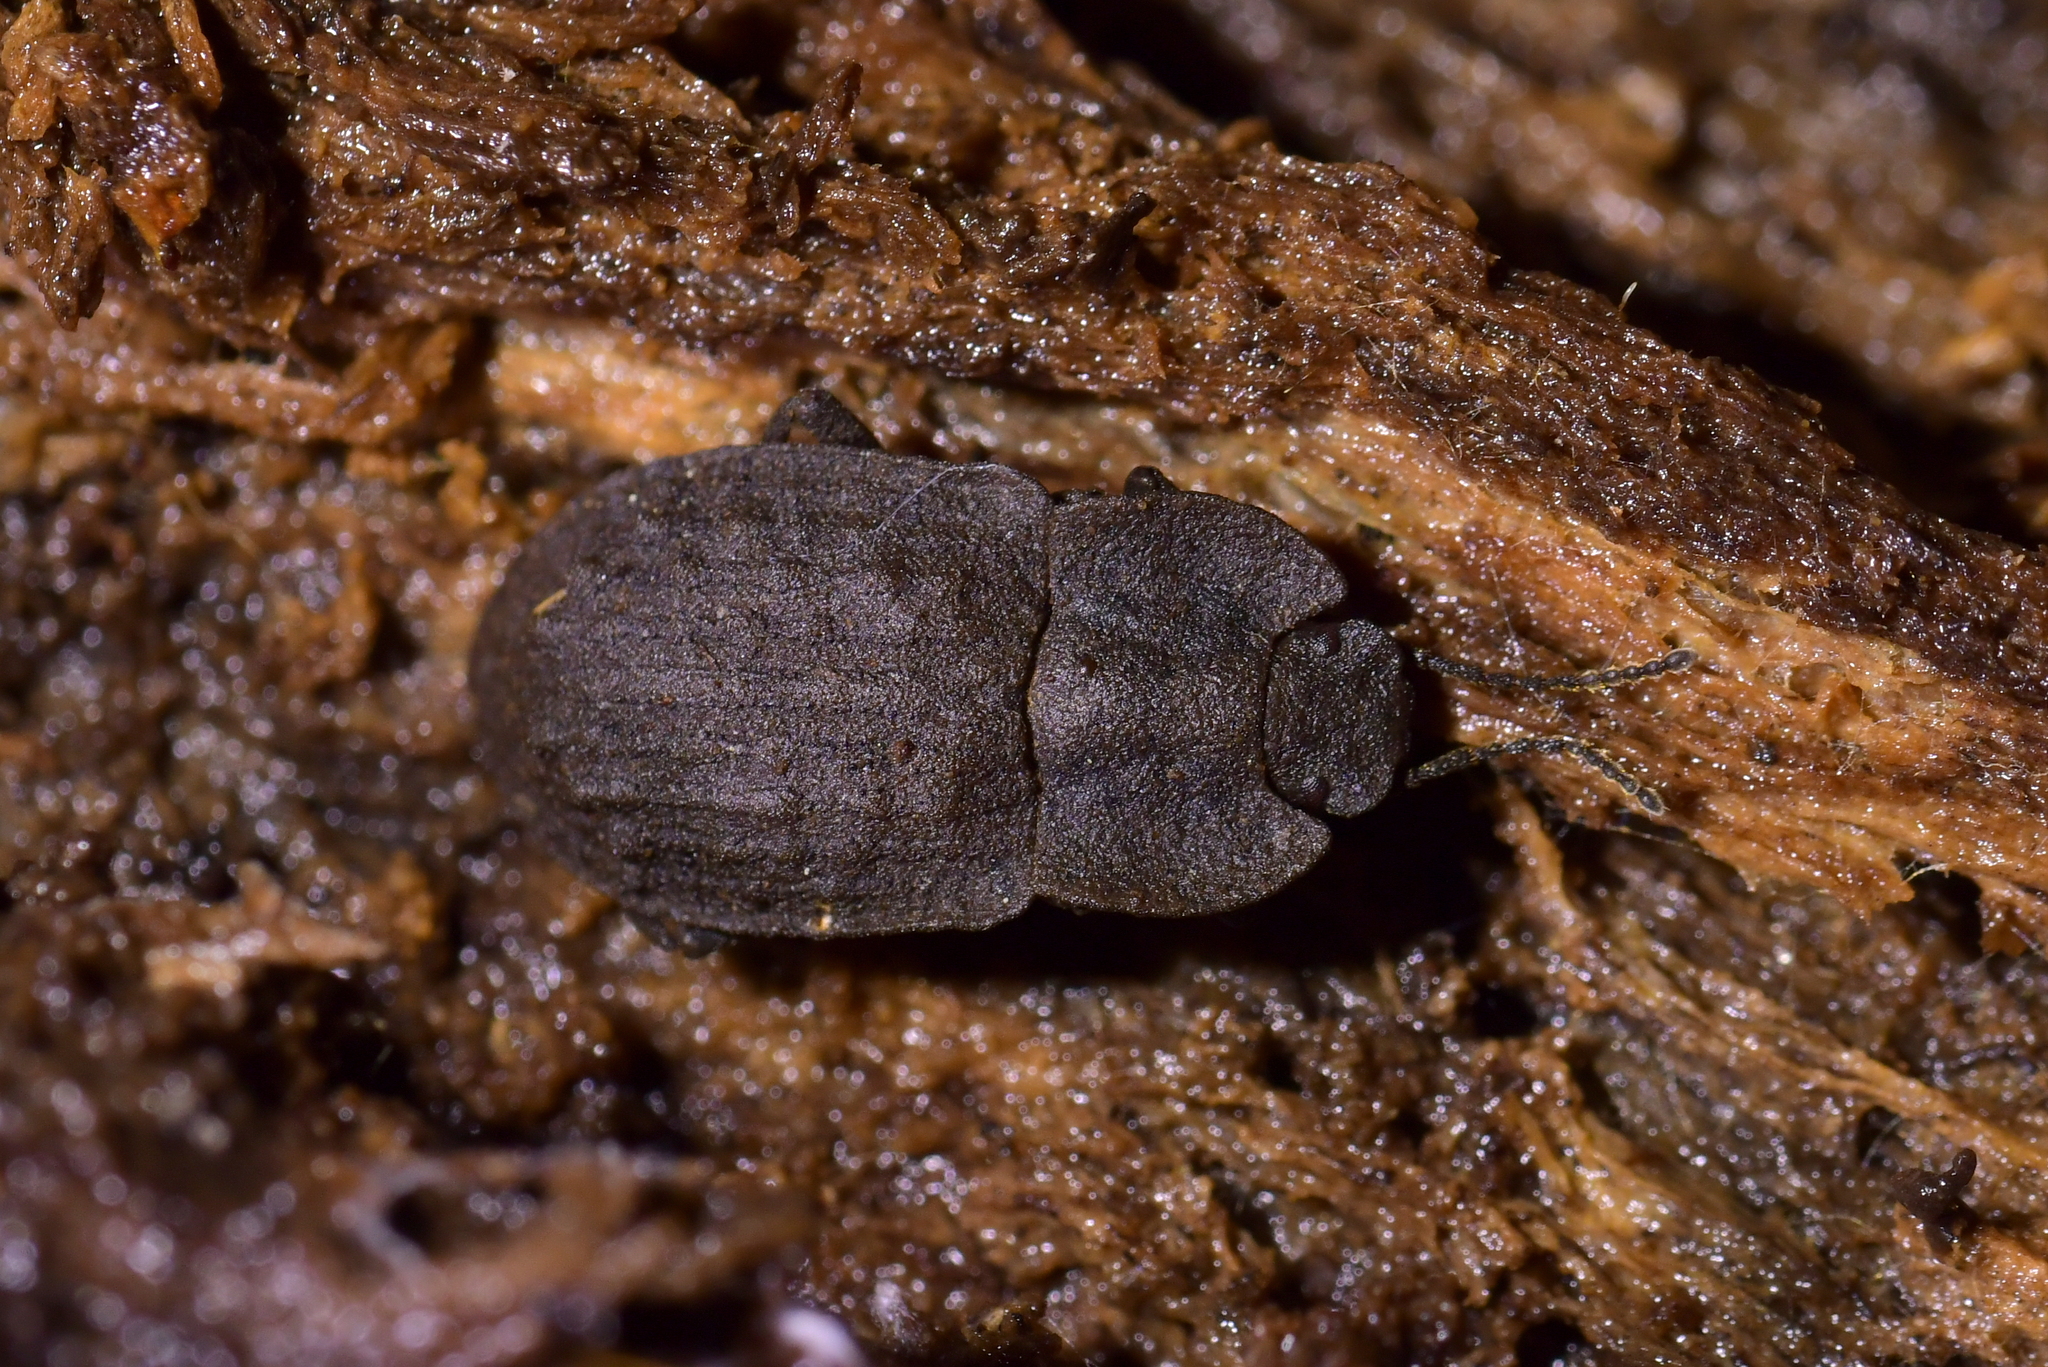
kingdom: Animalia
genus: Mitua
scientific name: Mitua
